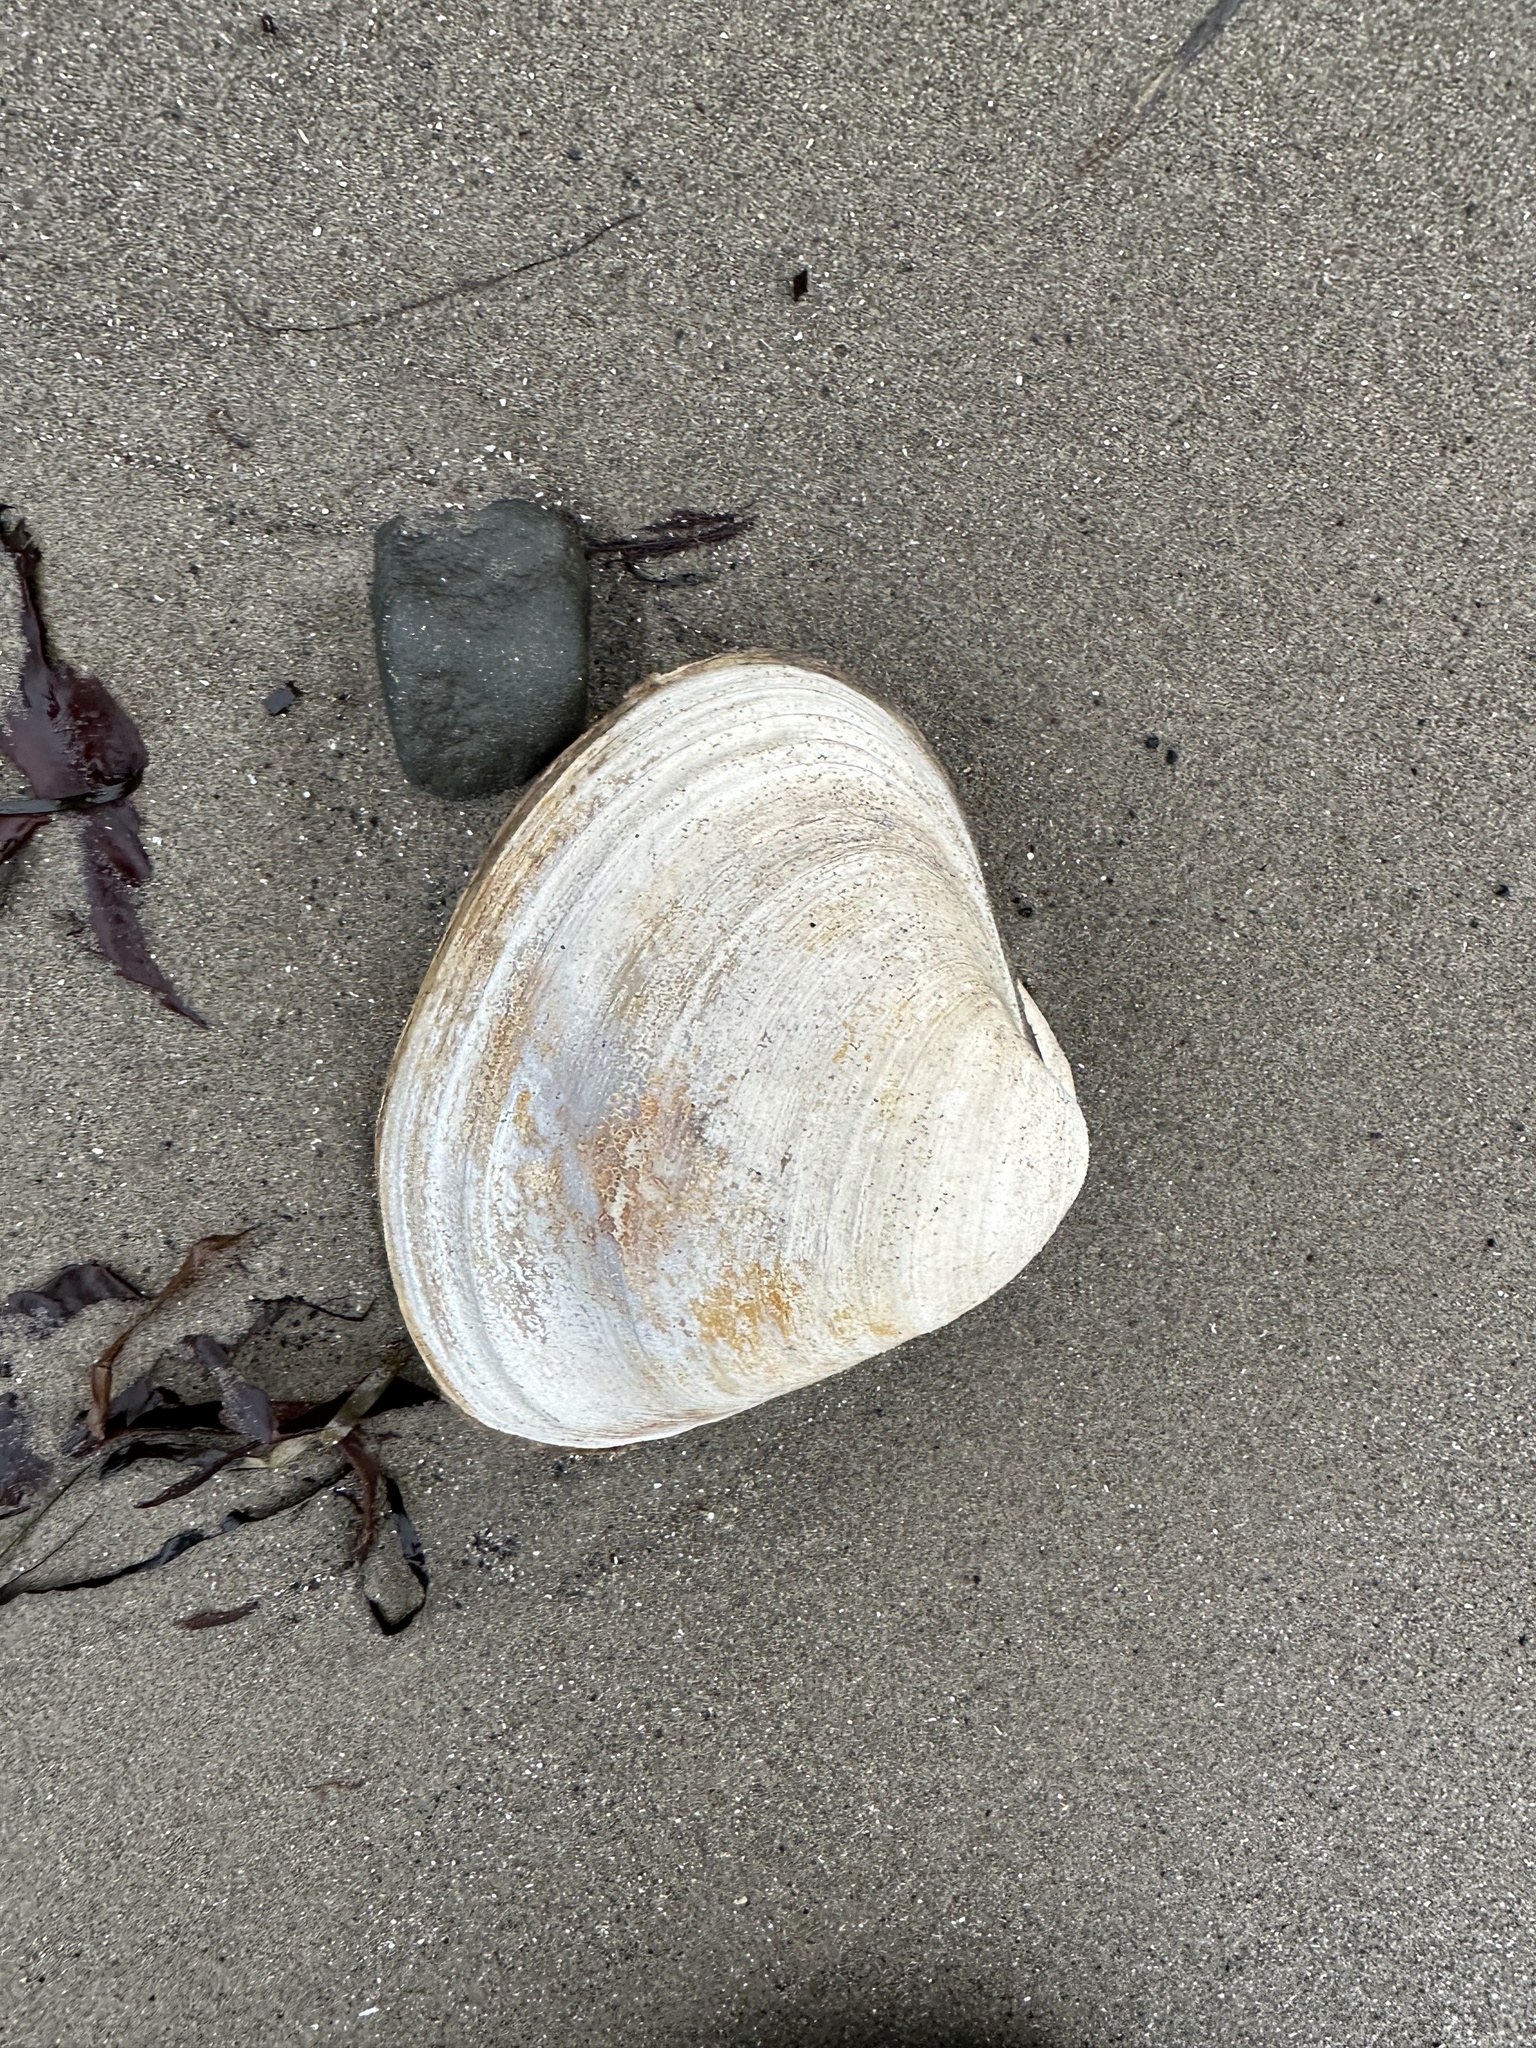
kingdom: Animalia
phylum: Mollusca
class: Bivalvia
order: Venerida
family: Mactridae
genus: Spisula
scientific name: Spisula solidissima
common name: Atlantic surf clam
